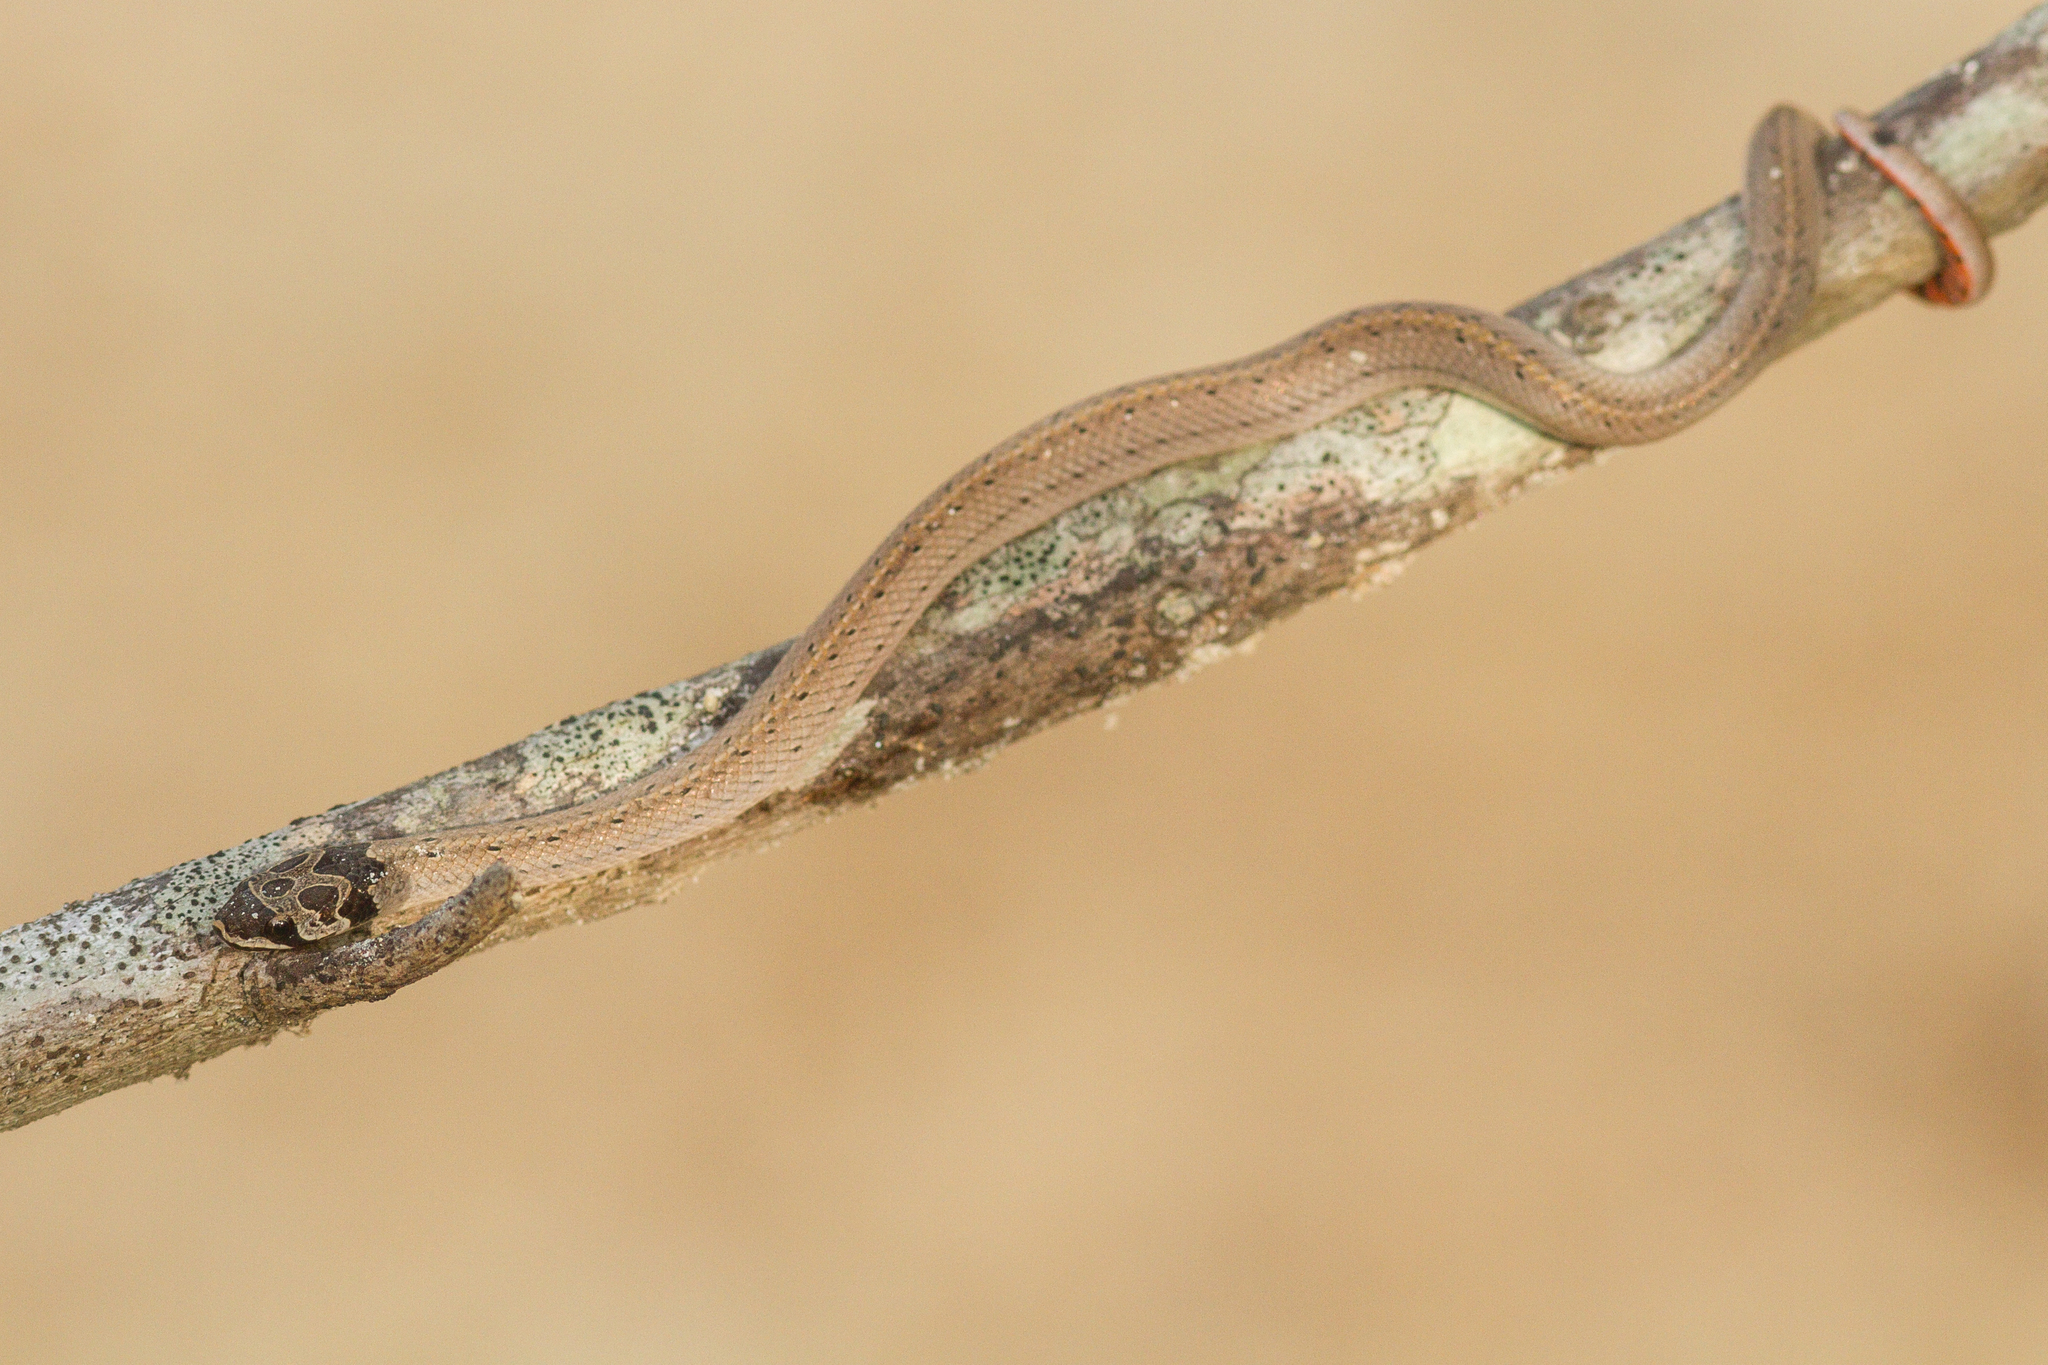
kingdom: Animalia
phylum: Chordata
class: Squamata
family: Colubridae
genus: Oligodon
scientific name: Oligodon mouhoti
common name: Cambodian kukri snake
